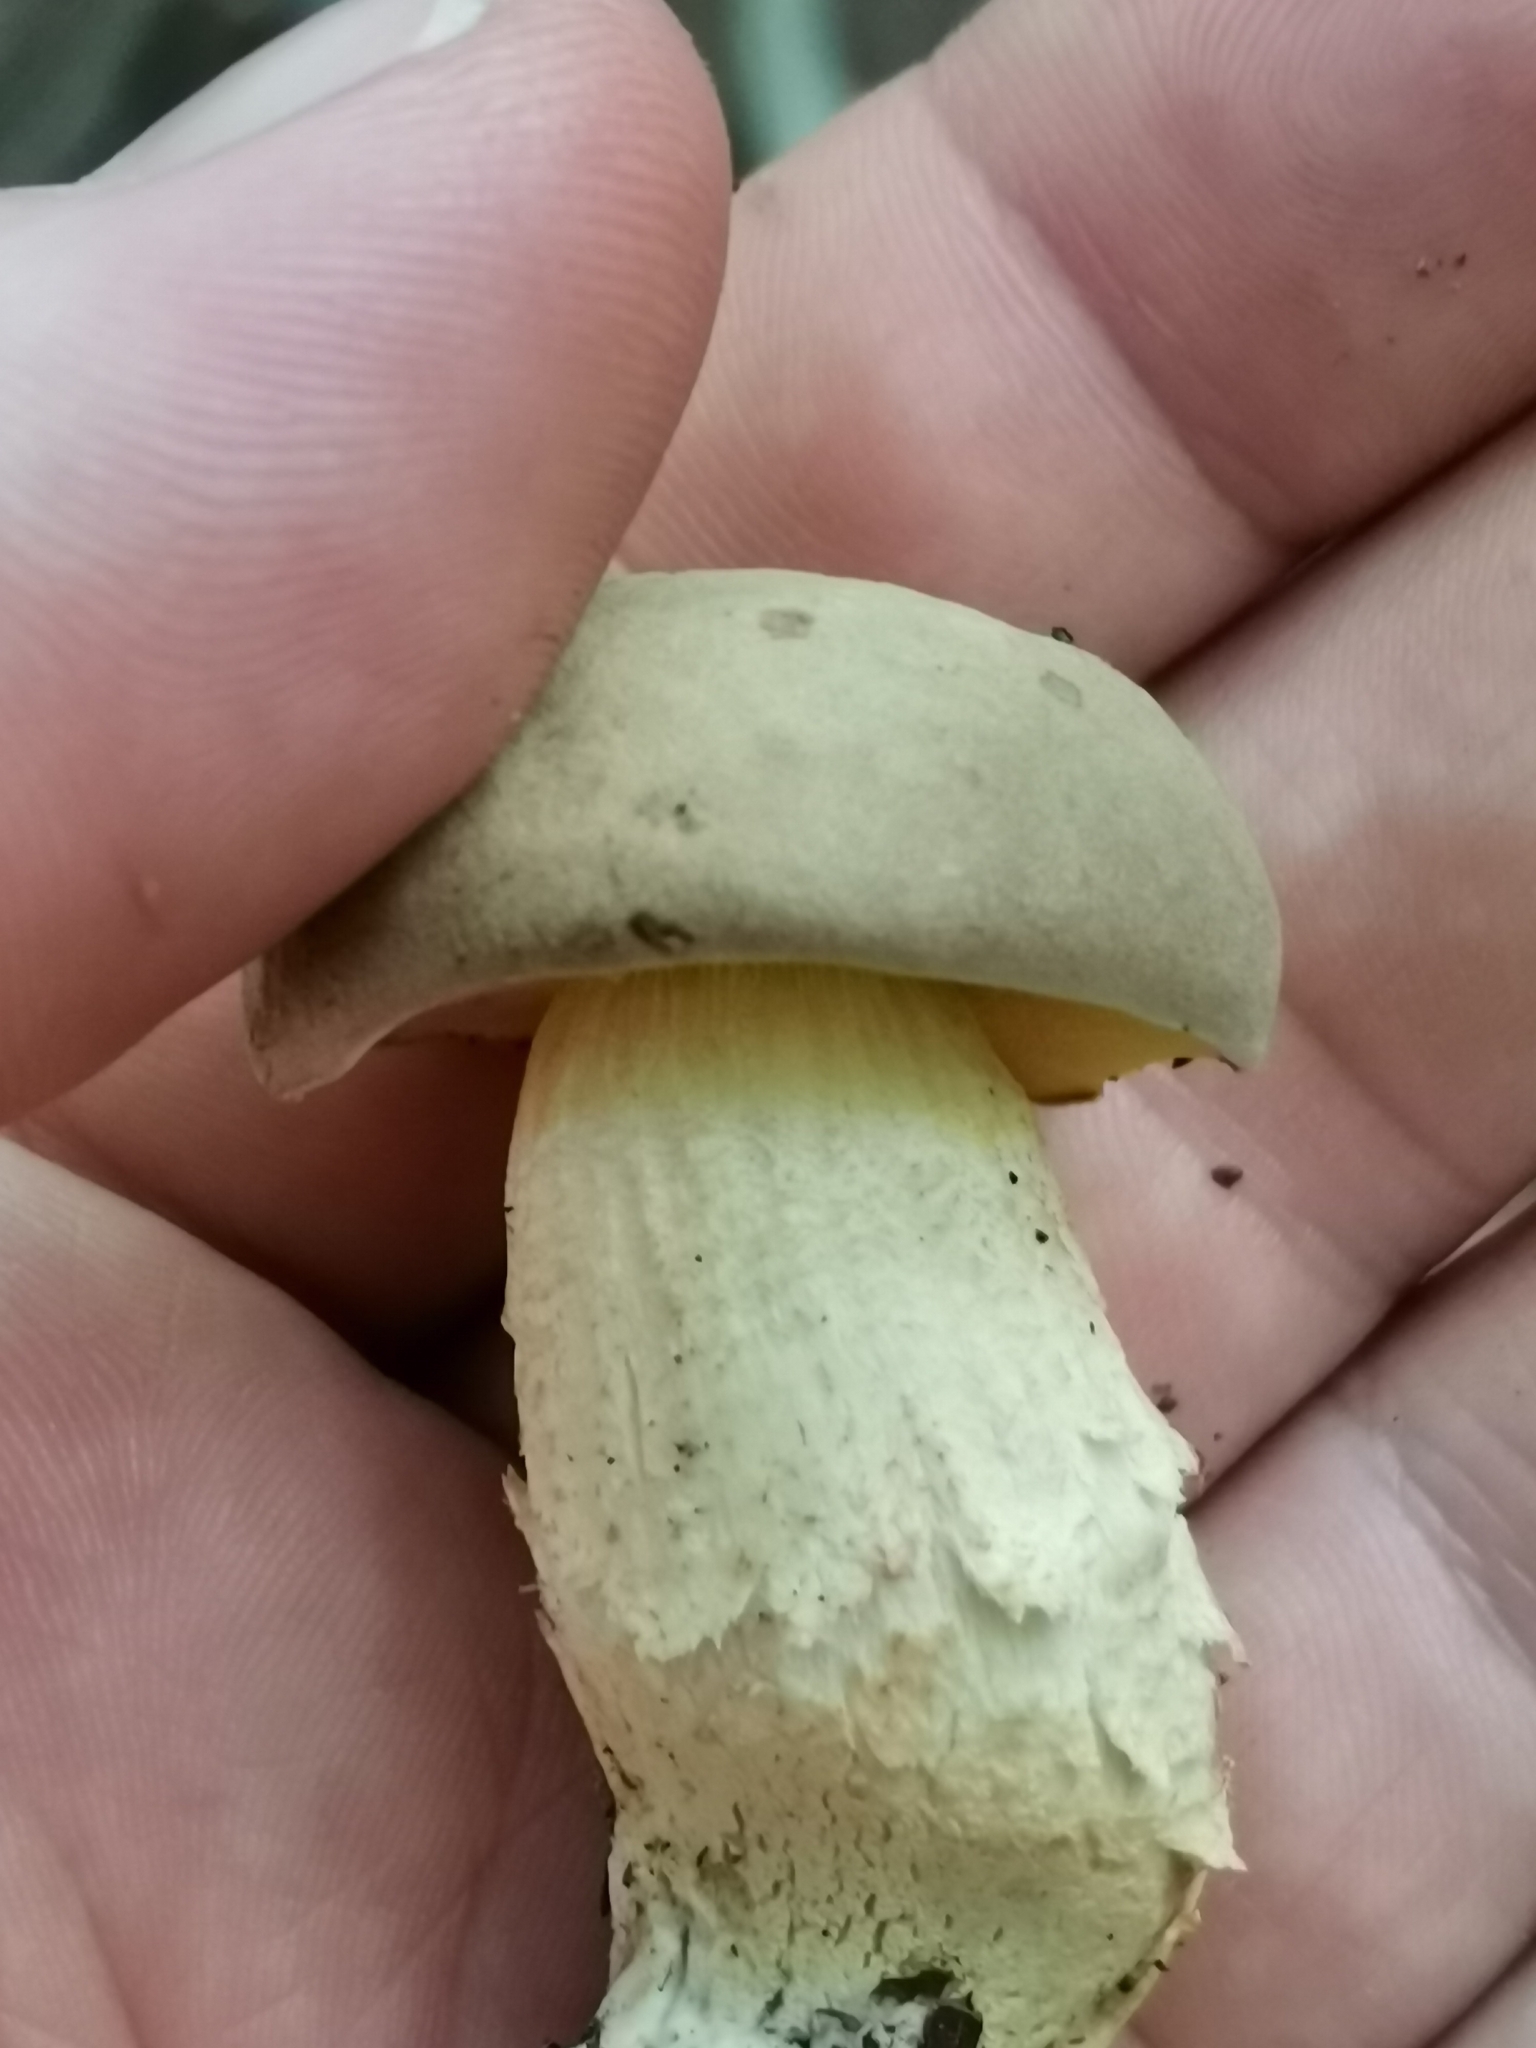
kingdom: Fungi
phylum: Basidiomycota
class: Agaricomycetes
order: Boletales
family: Boletaceae
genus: Xerocomus
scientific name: Xerocomus subtomentosus
